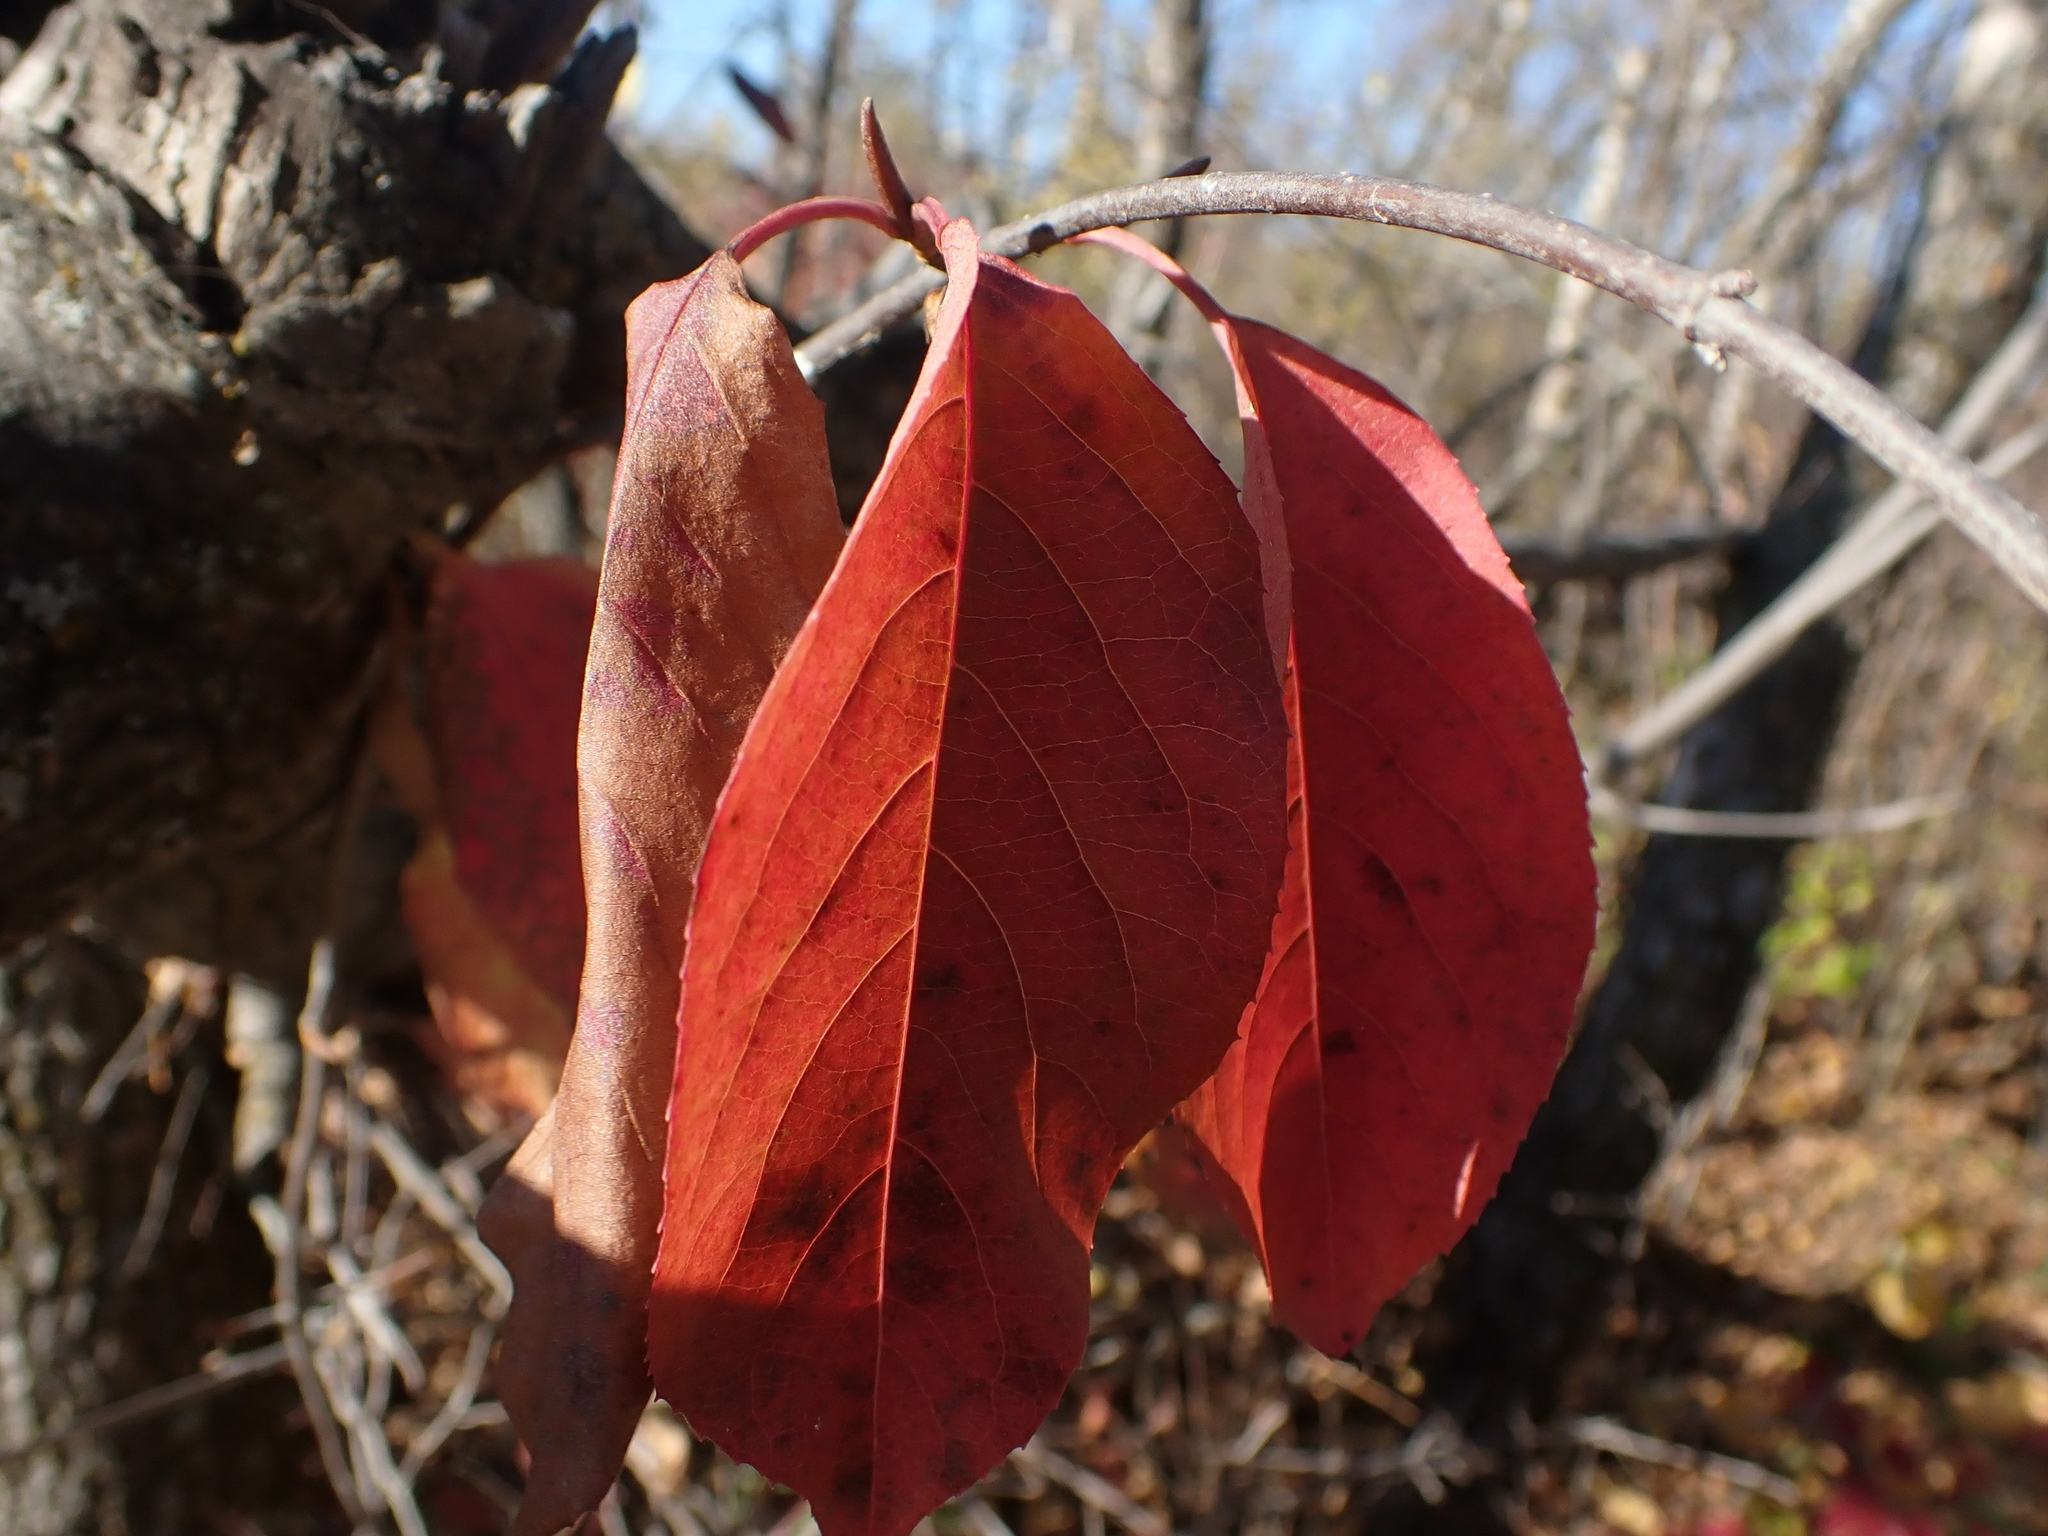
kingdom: Plantae
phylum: Tracheophyta
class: Magnoliopsida
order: Dipsacales
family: Viburnaceae
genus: Viburnum
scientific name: Viburnum lentago
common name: Black haw
